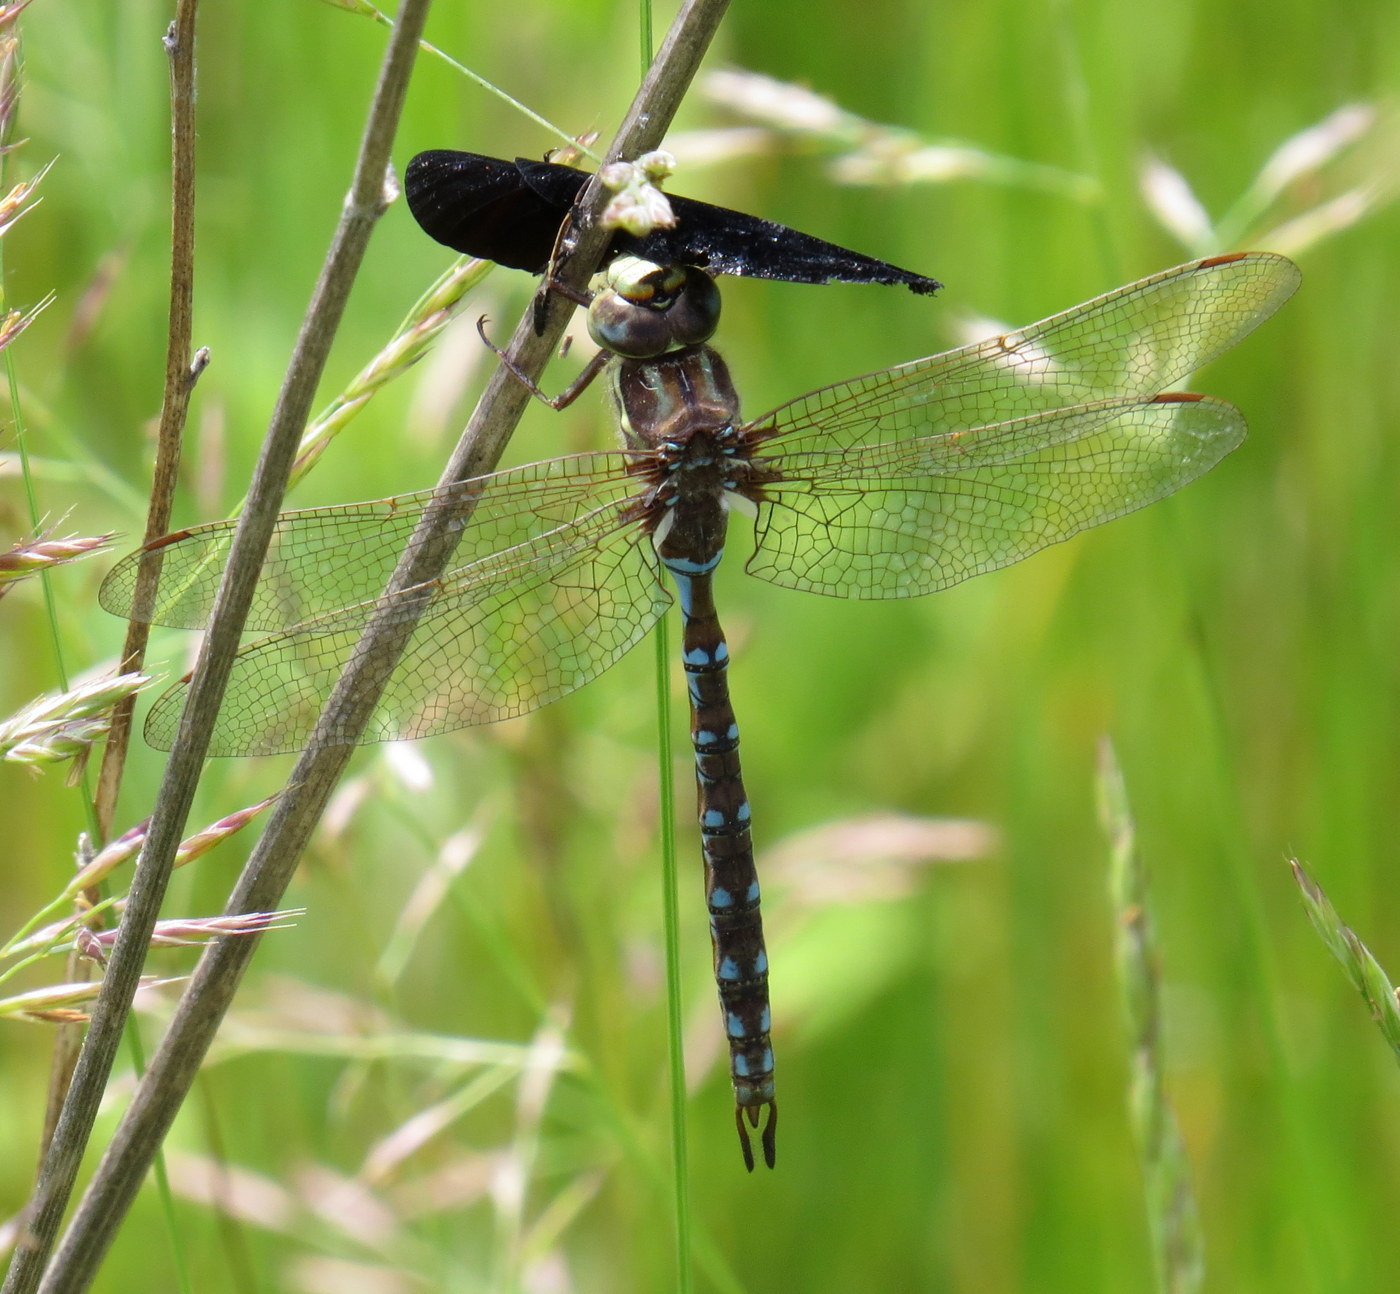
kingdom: Animalia
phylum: Arthropoda
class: Insecta
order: Odonata
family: Aeshnidae
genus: Basiaeschna
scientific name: Basiaeschna janata
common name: Springtime darner
